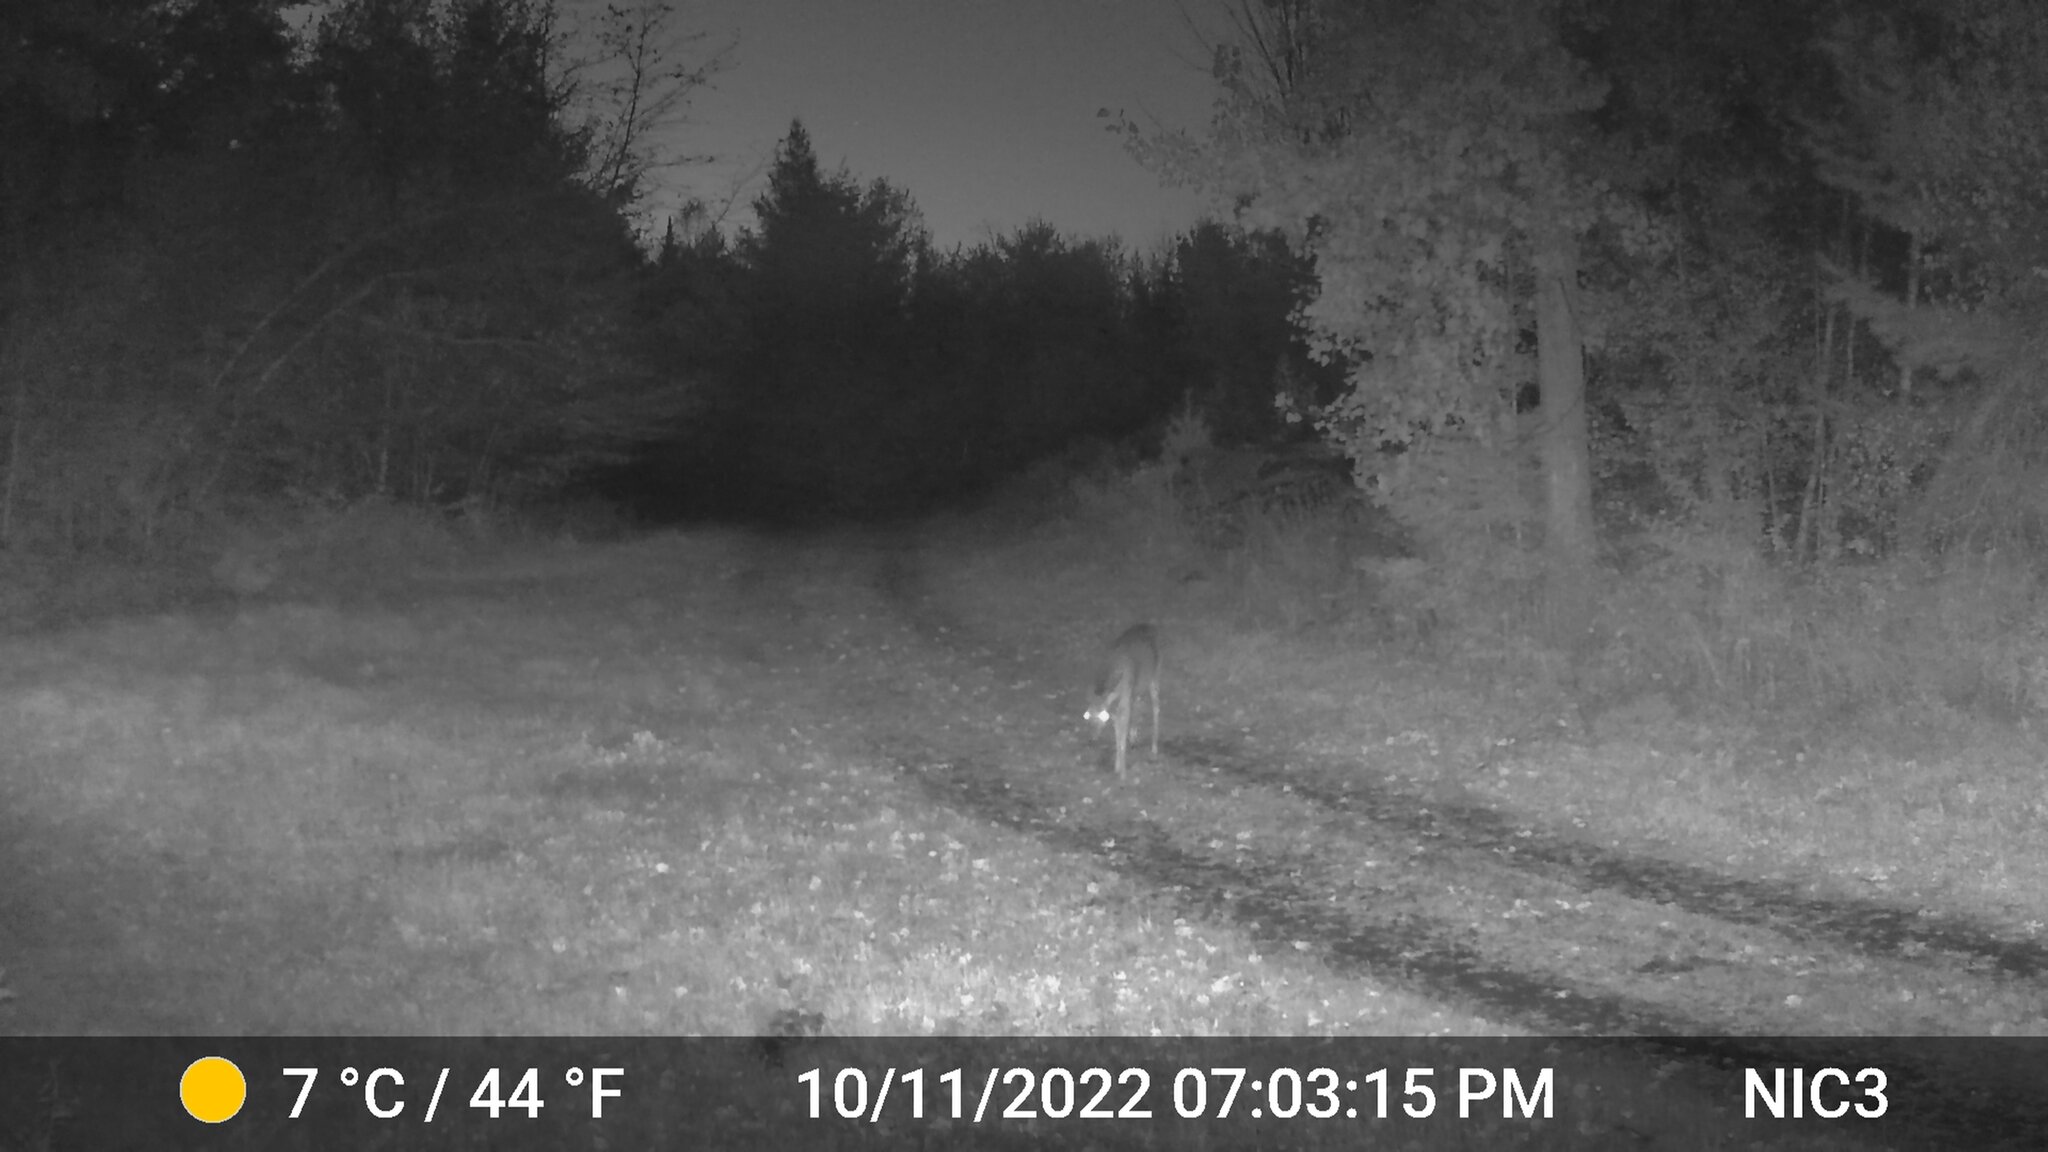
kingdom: Animalia
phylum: Chordata
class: Mammalia
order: Artiodactyla
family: Cervidae
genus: Odocoileus
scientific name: Odocoileus virginianus
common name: White-tailed deer
